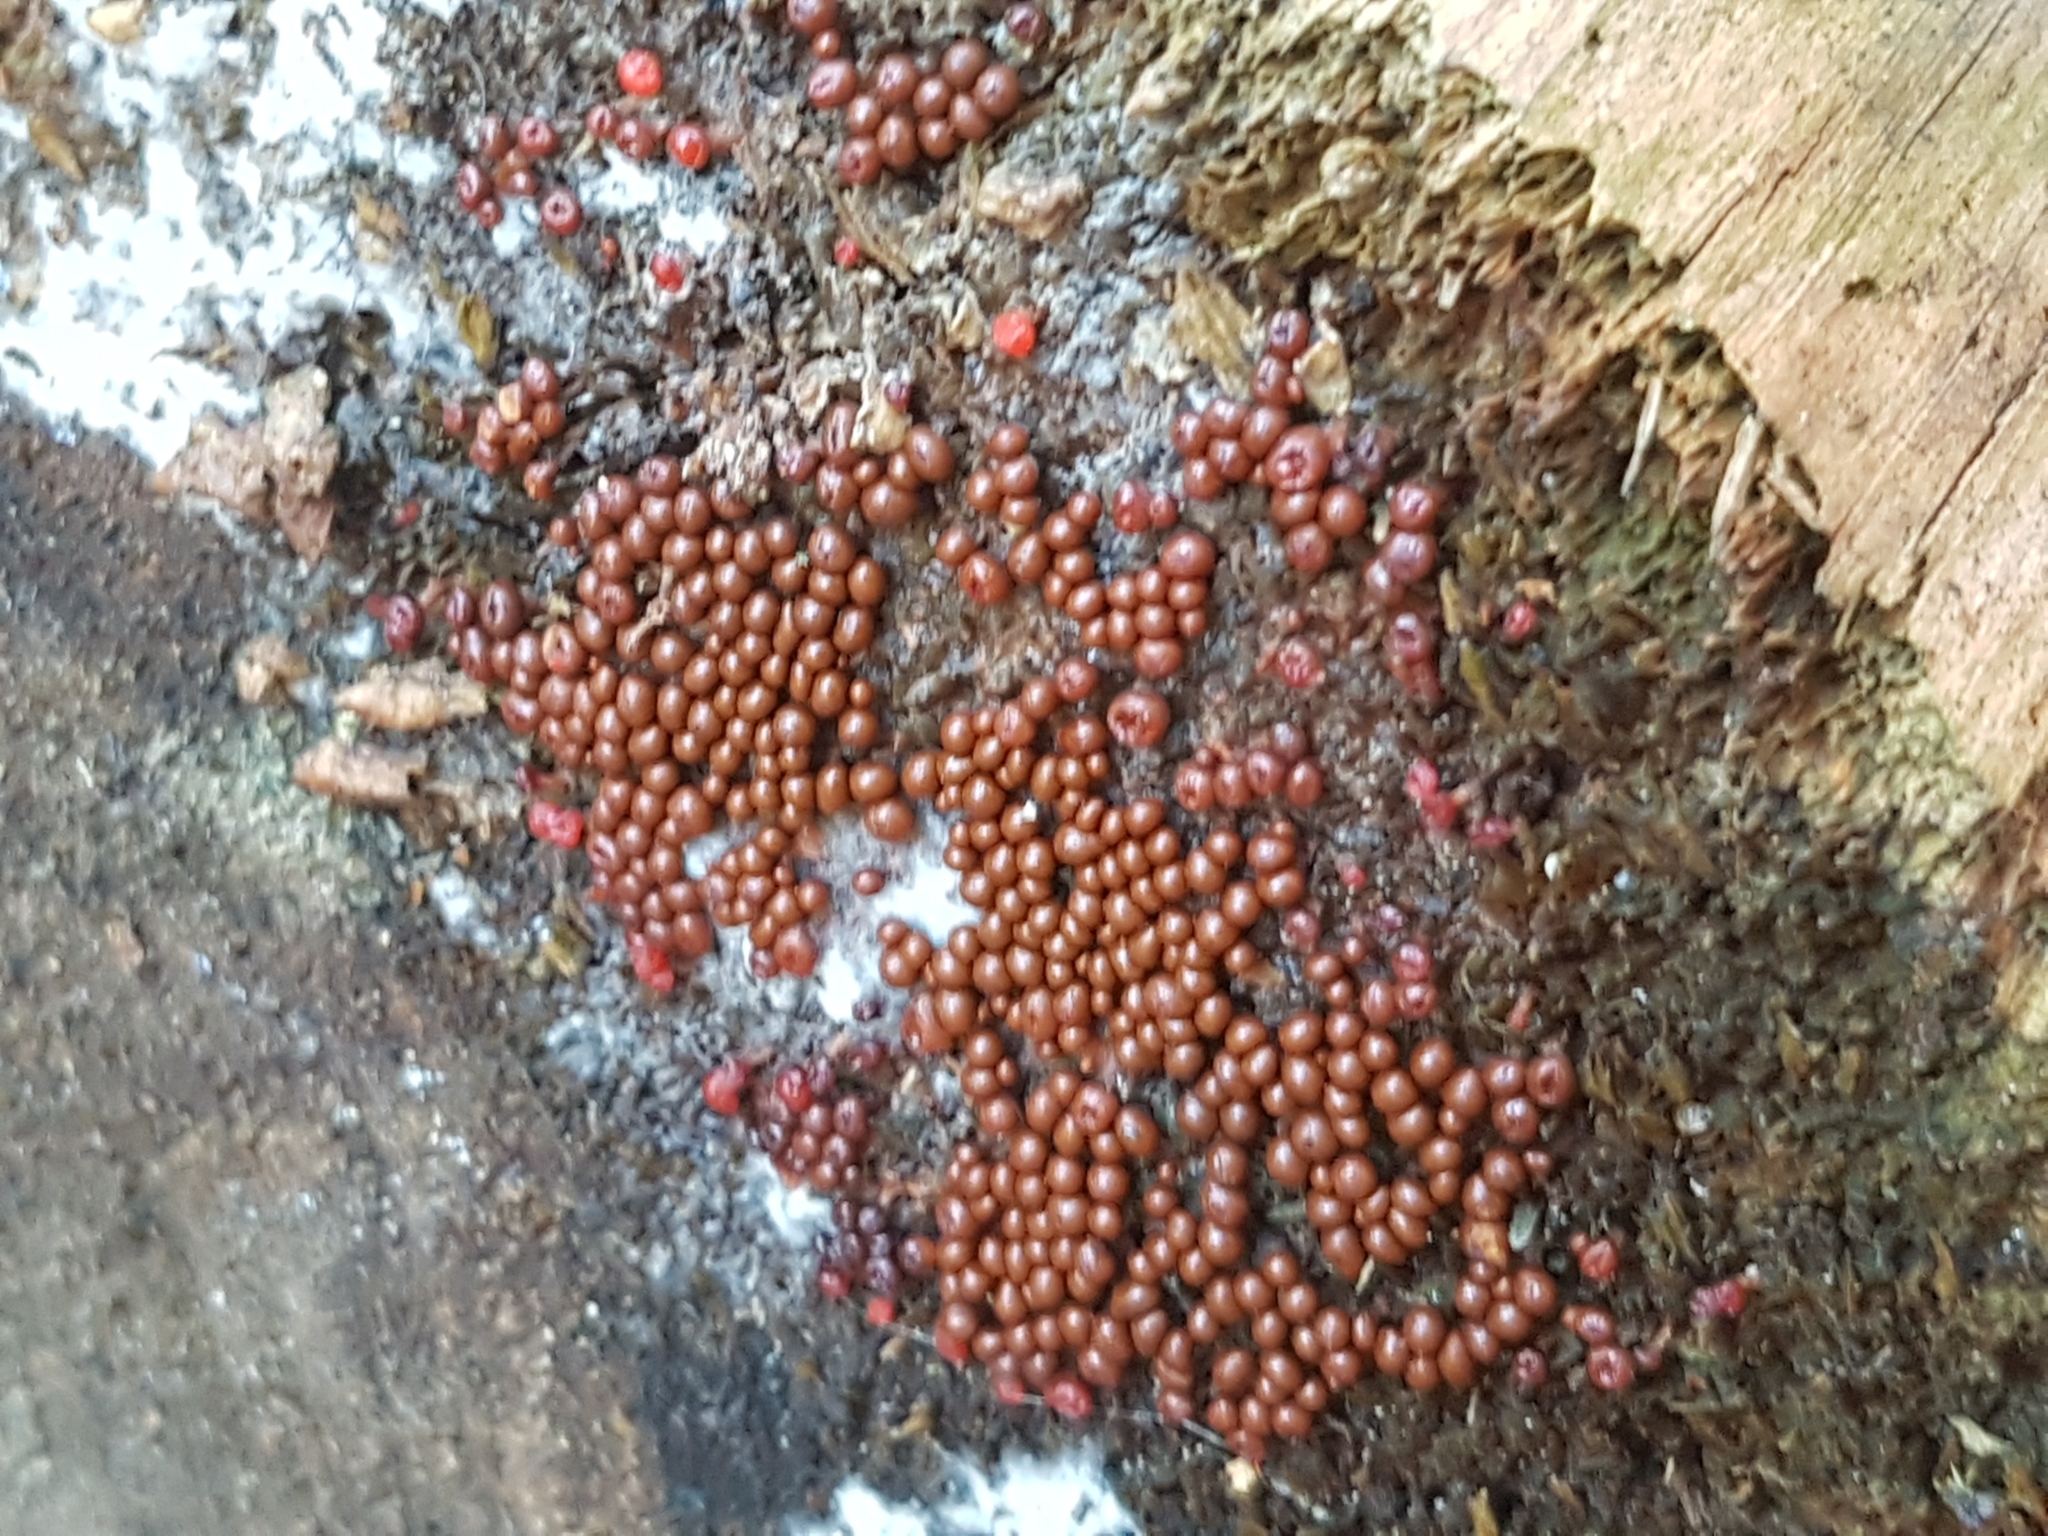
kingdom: Protozoa
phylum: Mycetozoa
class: Myxomycetes
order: Physarales
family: Physaraceae
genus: Leocarpus
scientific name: Leocarpus fragilis
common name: Insect-egg slime
